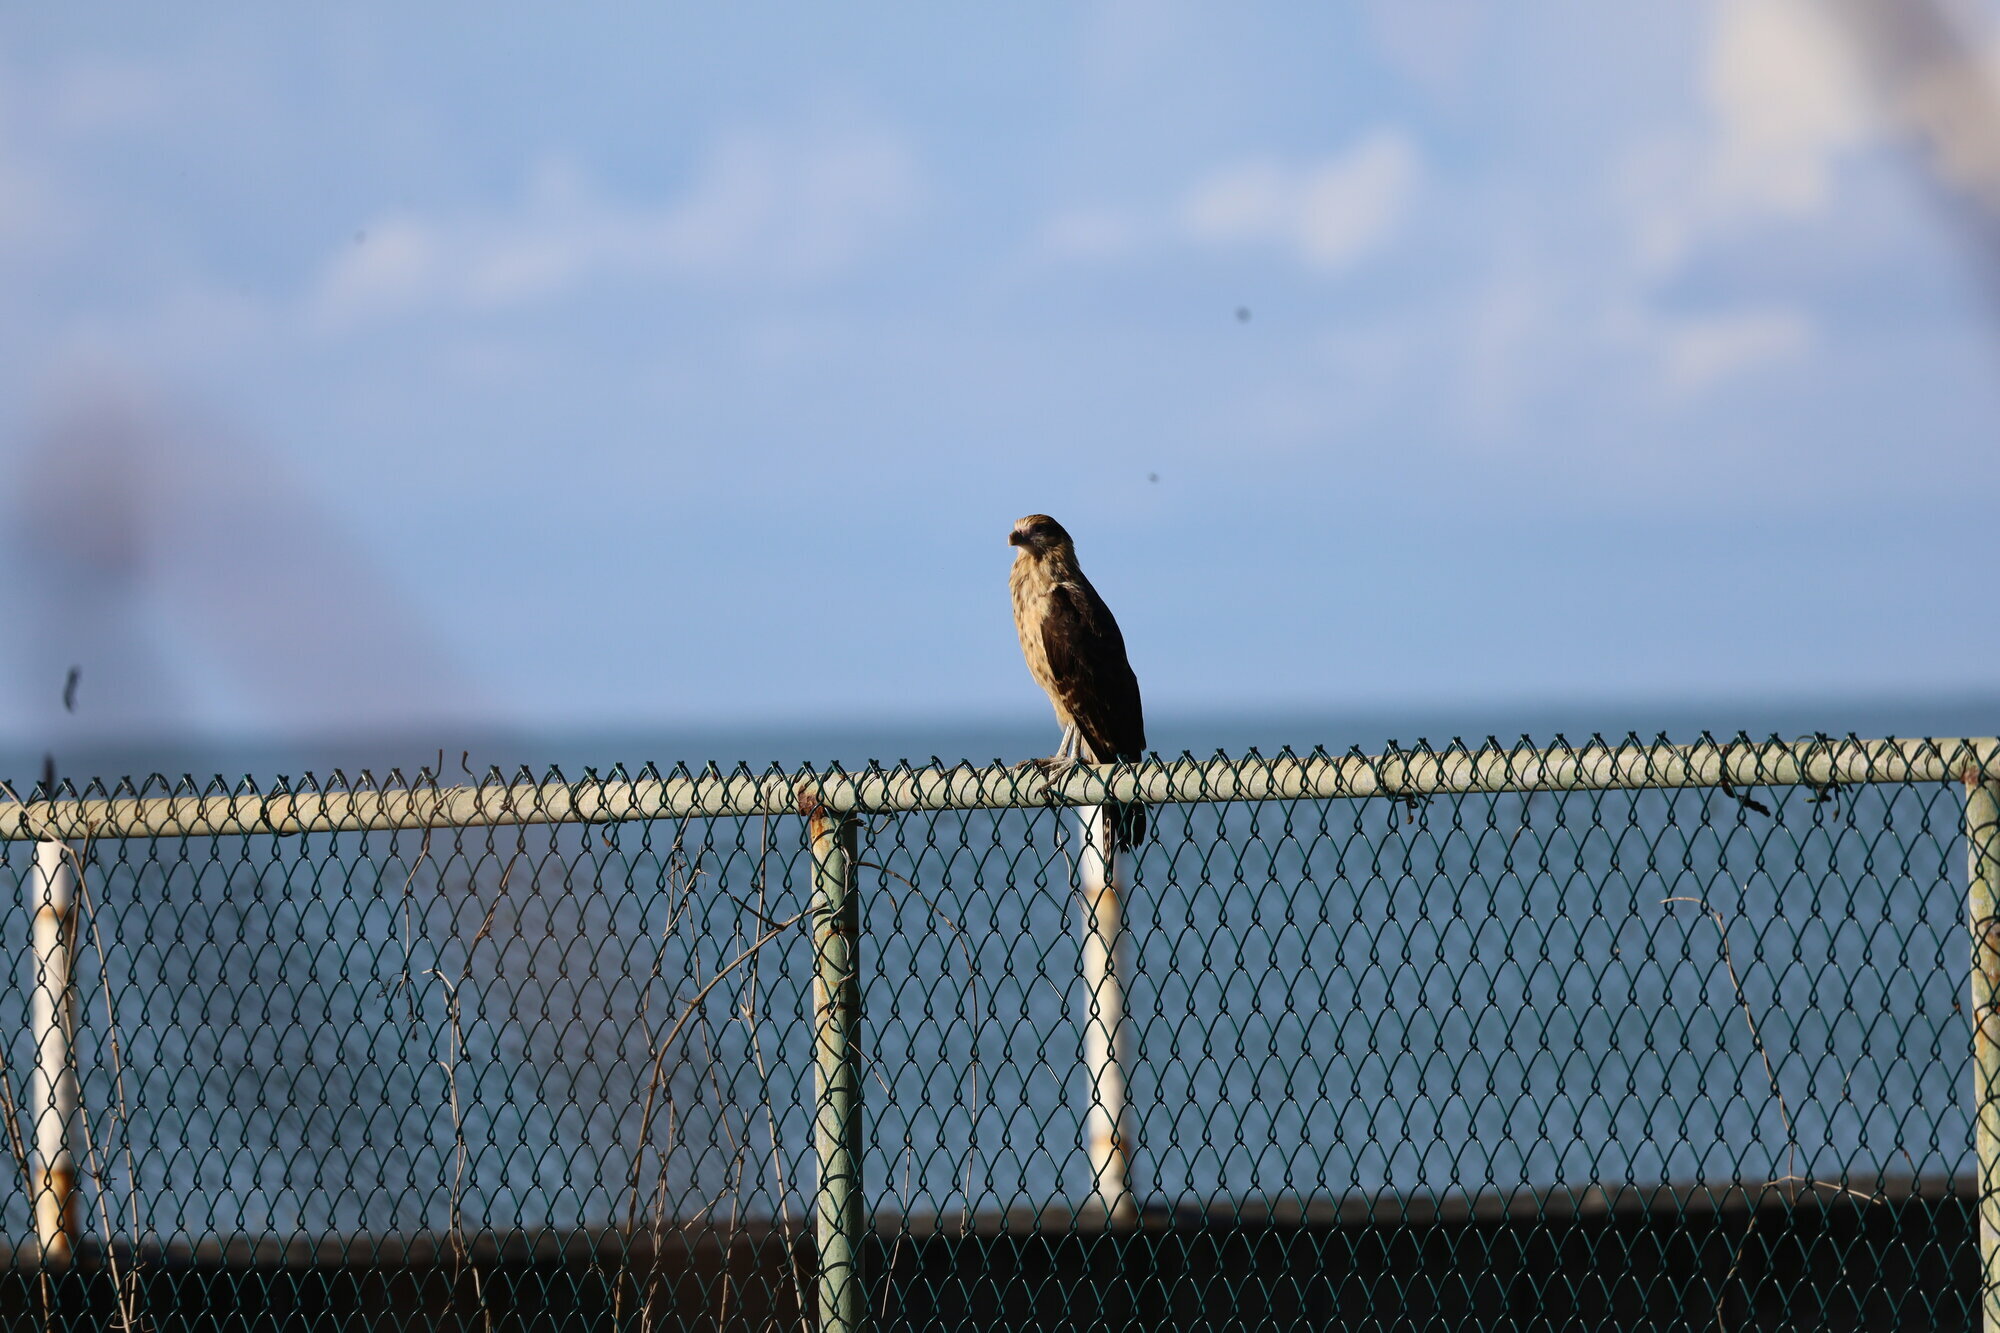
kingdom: Animalia
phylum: Chordata
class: Aves
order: Falconiformes
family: Falconidae
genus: Daptrius
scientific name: Daptrius
